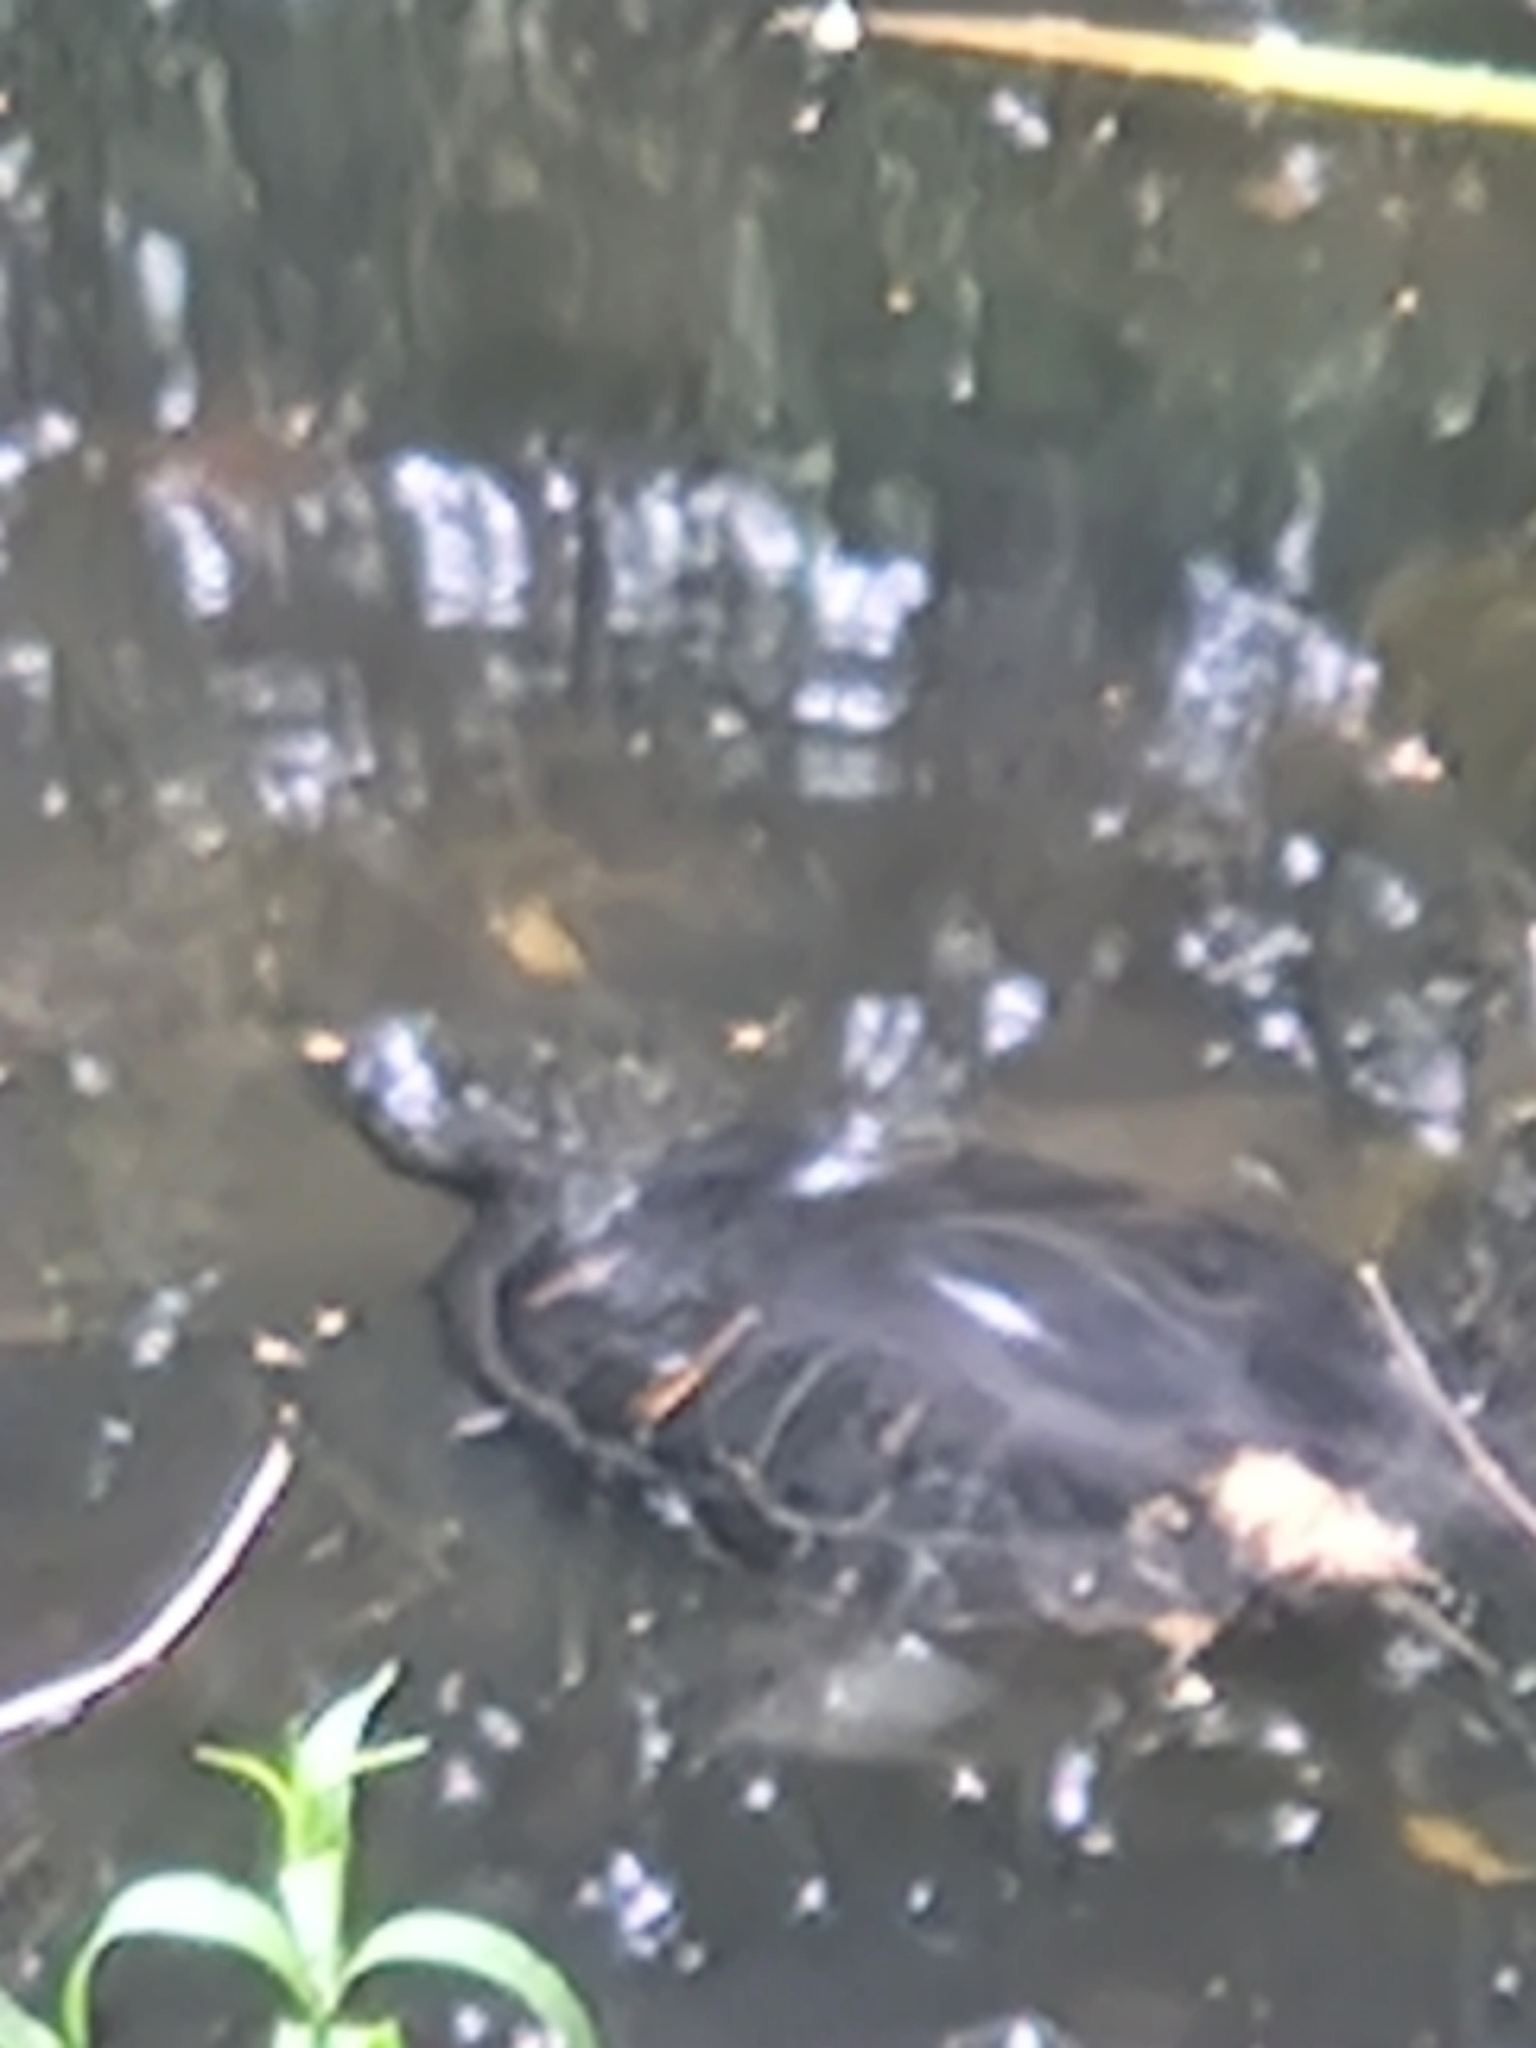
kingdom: Animalia
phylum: Chordata
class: Testudines
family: Emydidae
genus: Trachemys
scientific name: Trachemys scripta
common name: Slider
